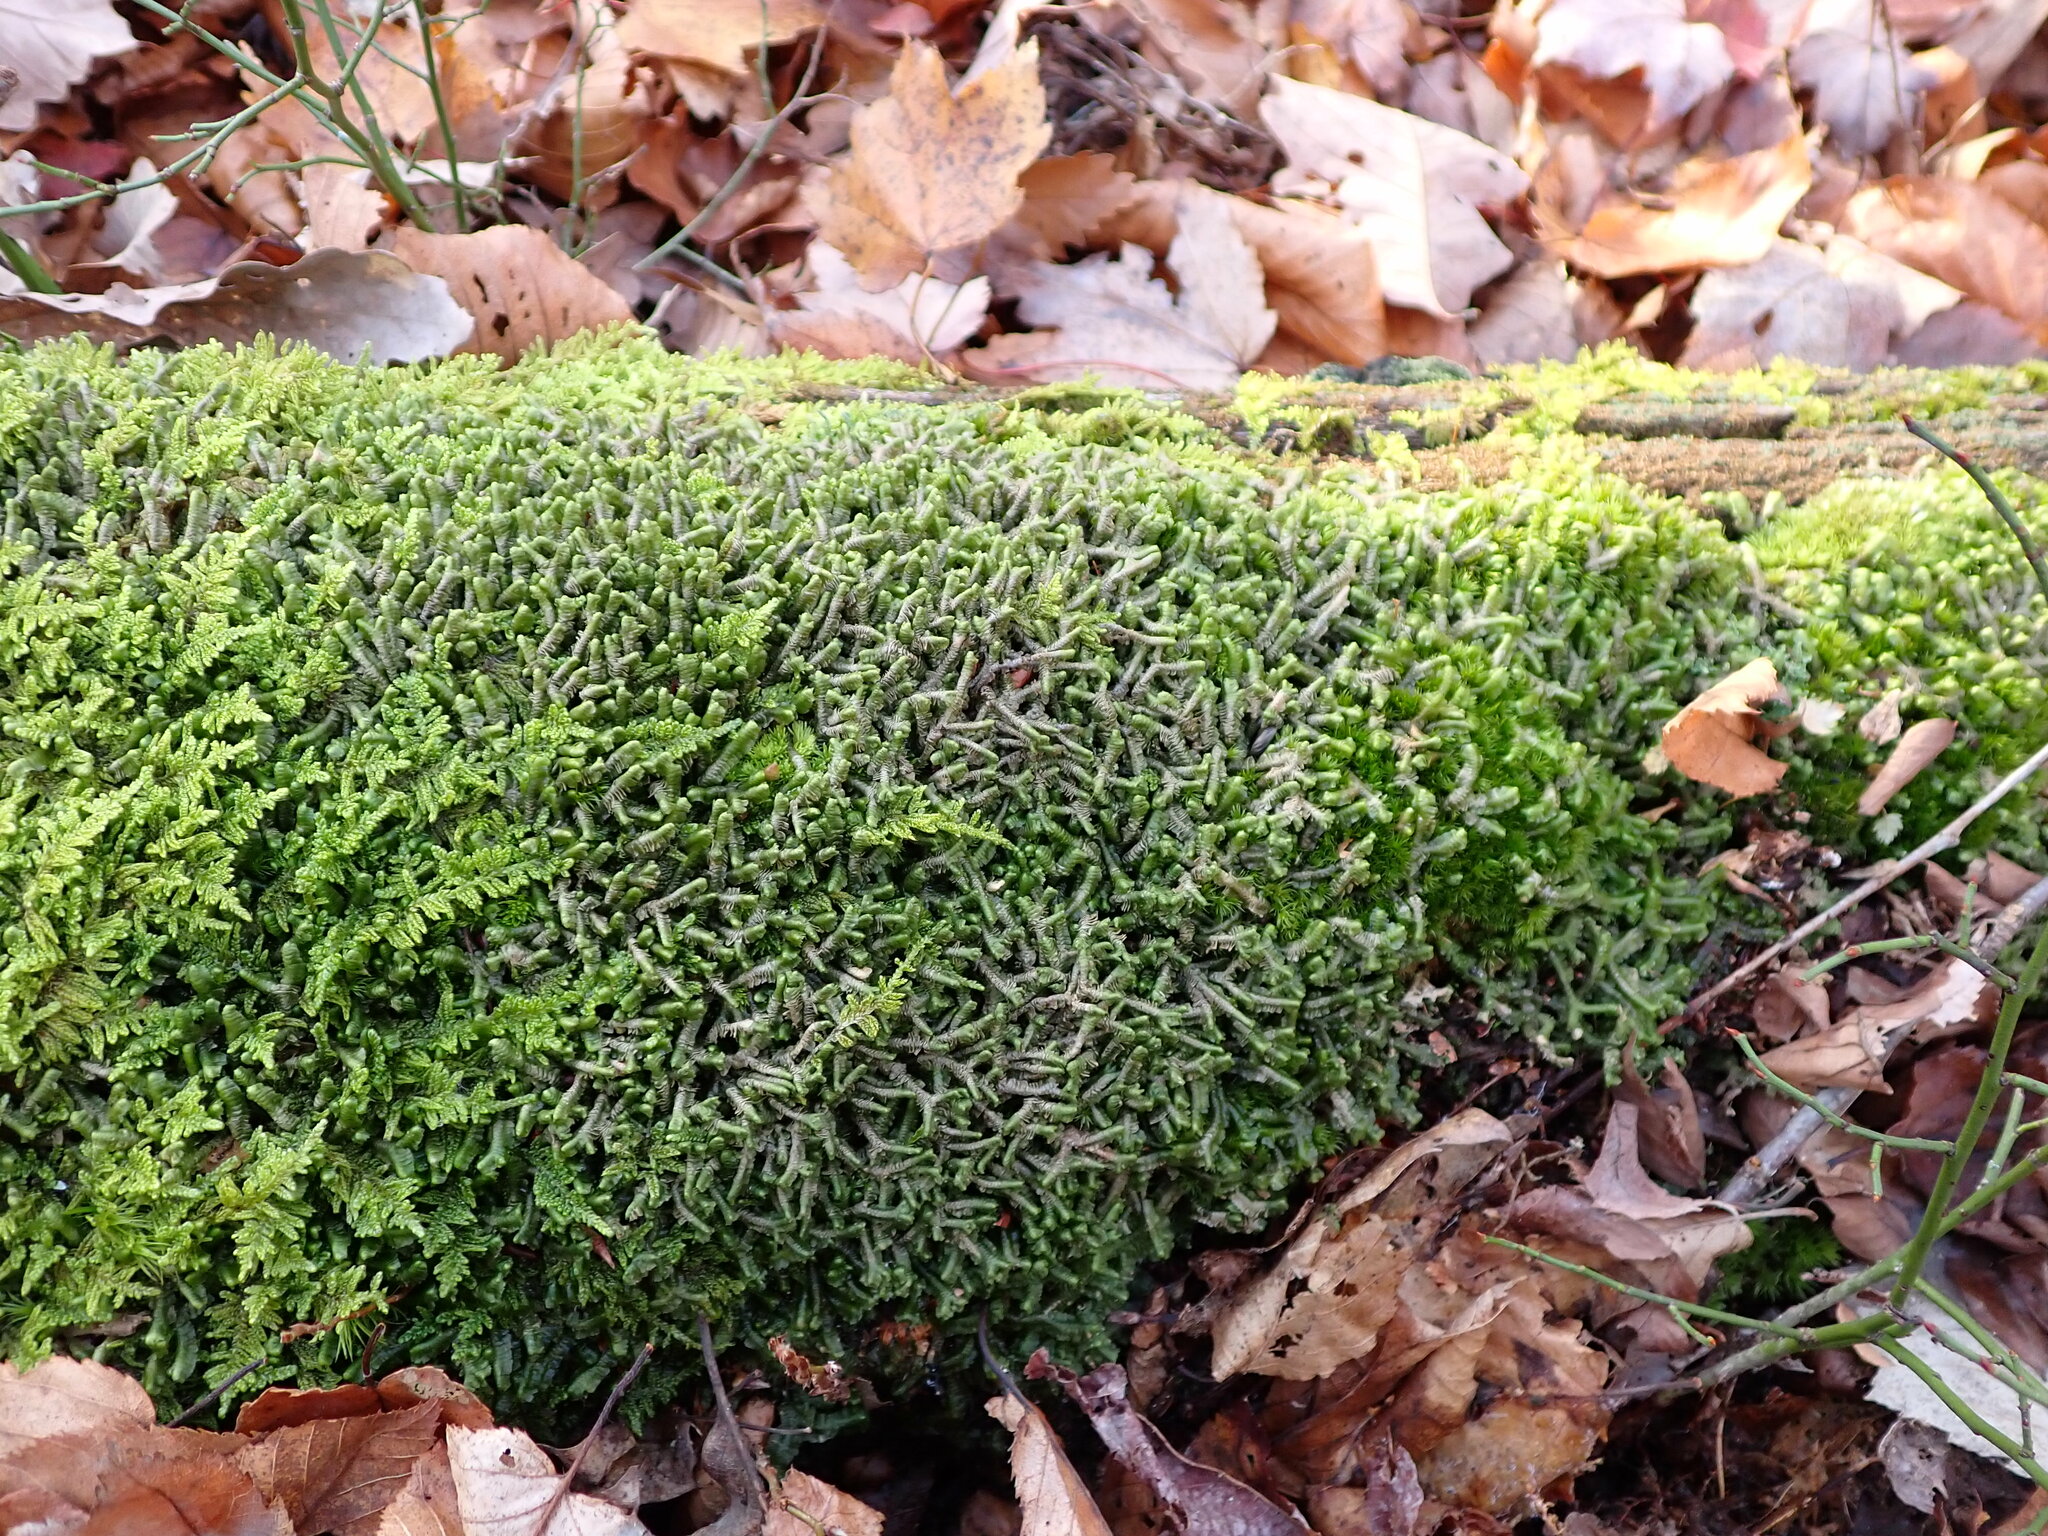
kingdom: Plantae
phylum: Marchantiophyta
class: Jungermanniopsida
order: Jungermanniales
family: Lepidoziaceae
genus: Bazzania
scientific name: Bazzania trilobata
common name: Three-lobed whipwort
